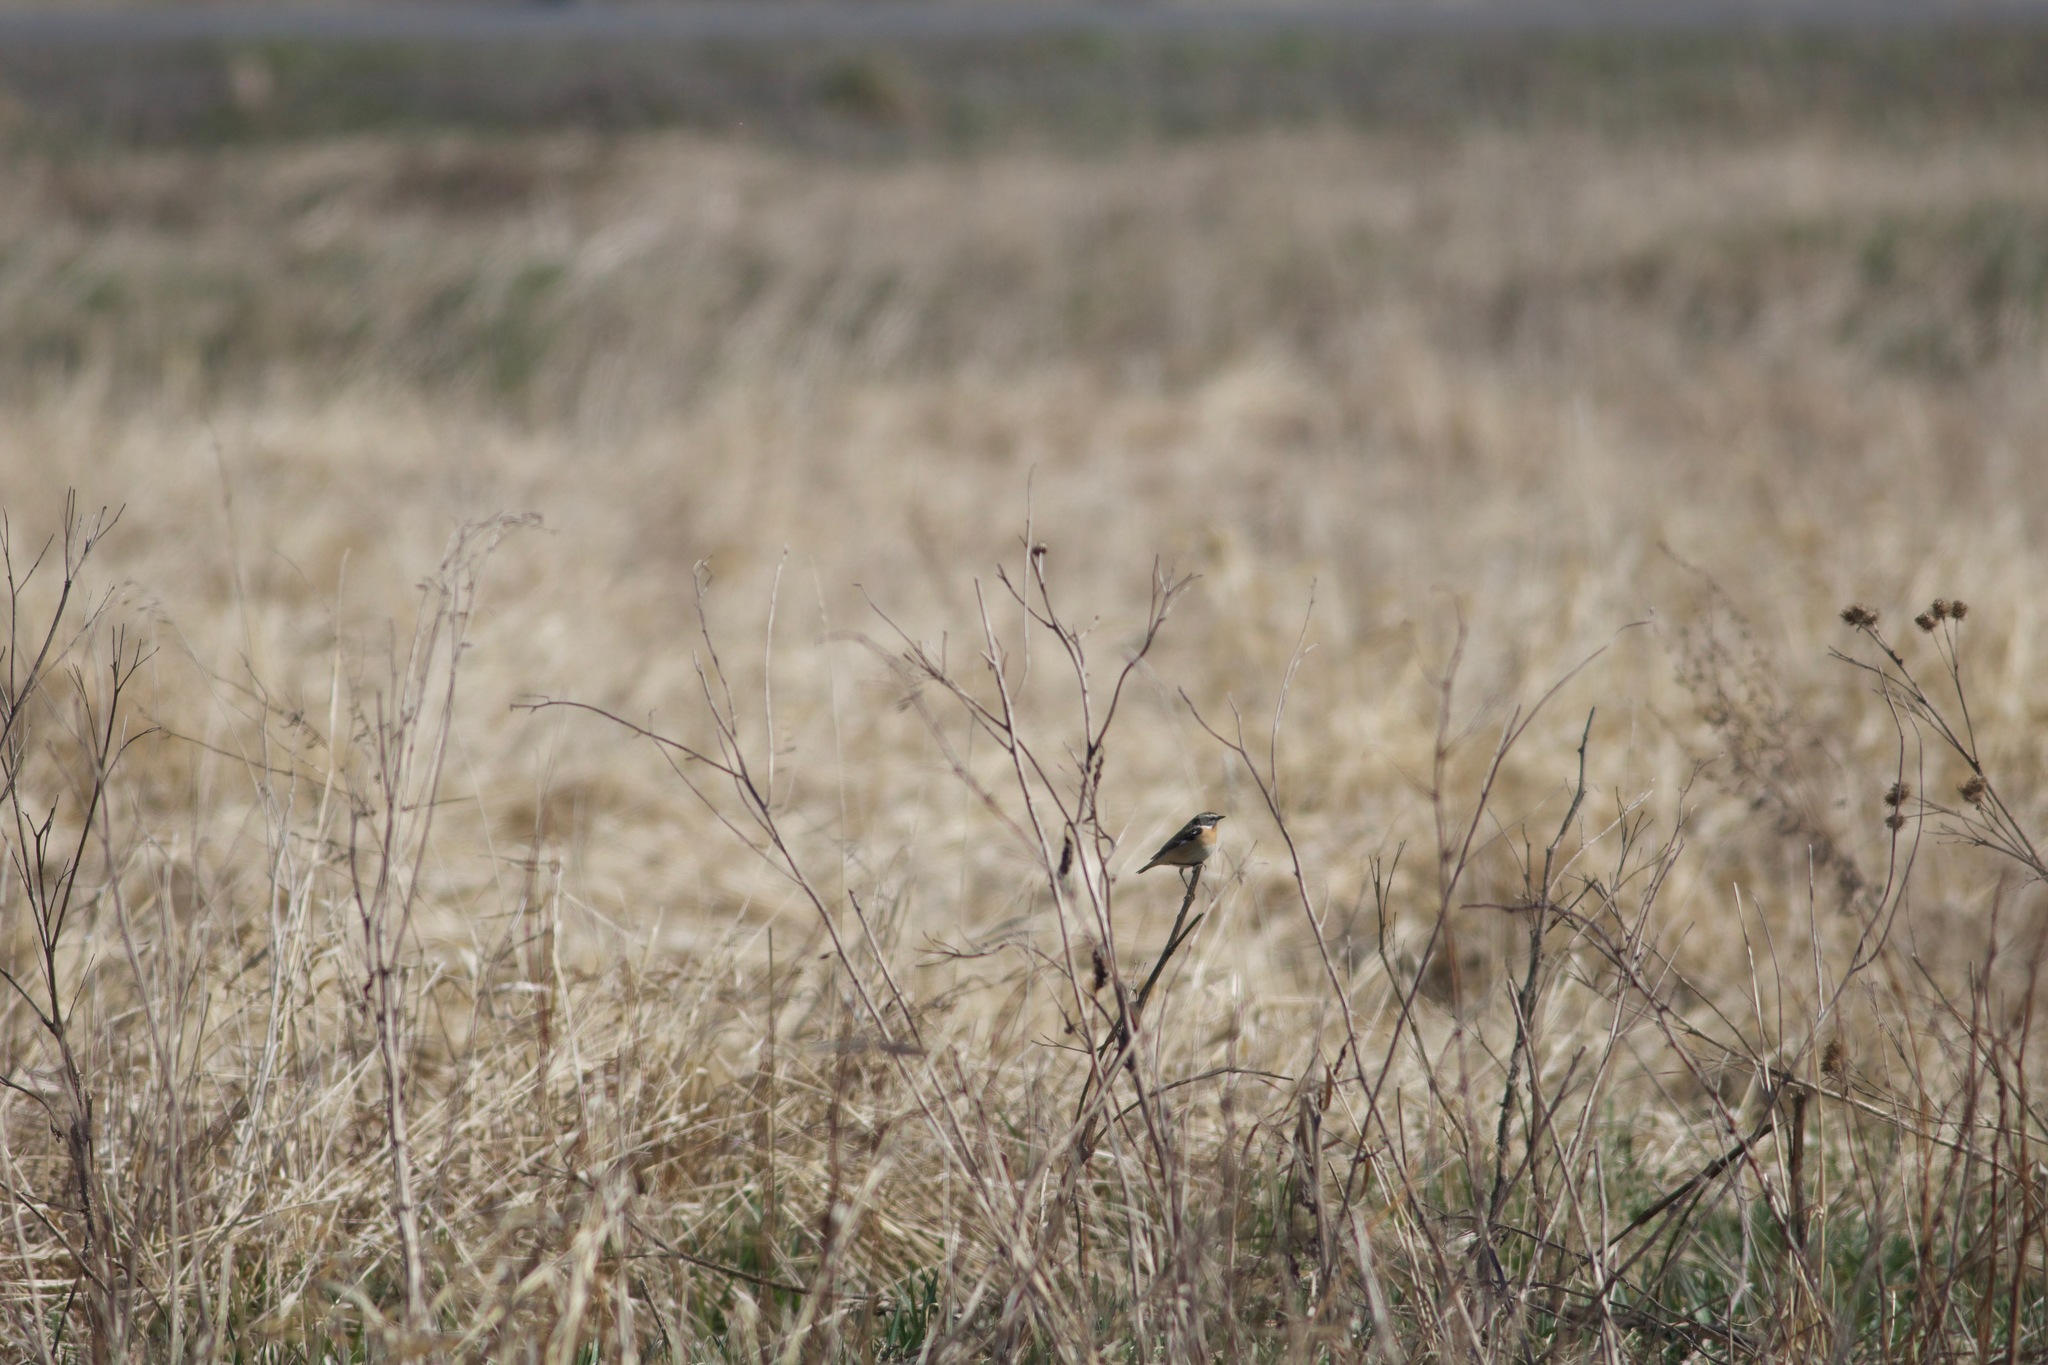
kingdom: Animalia
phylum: Chordata
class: Aves
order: Passeriformes
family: Muscicapidae
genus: Saxicola
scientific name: Saxicola rubetra
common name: Whinchat
